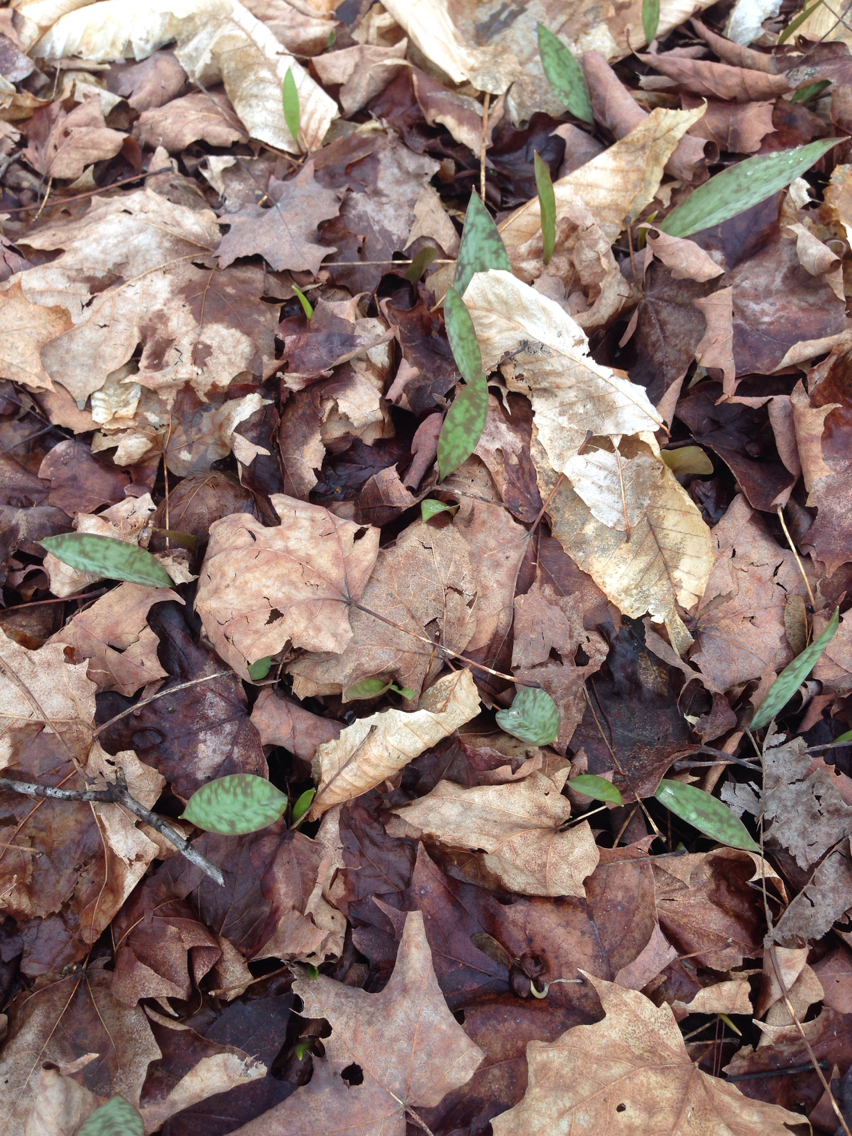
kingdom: Plantae
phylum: Tracheophyta
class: Liliopsida
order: Liliales
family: Liliaceae
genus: Erythronium
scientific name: Erythronium americanum
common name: Yellow adder's-tongue
